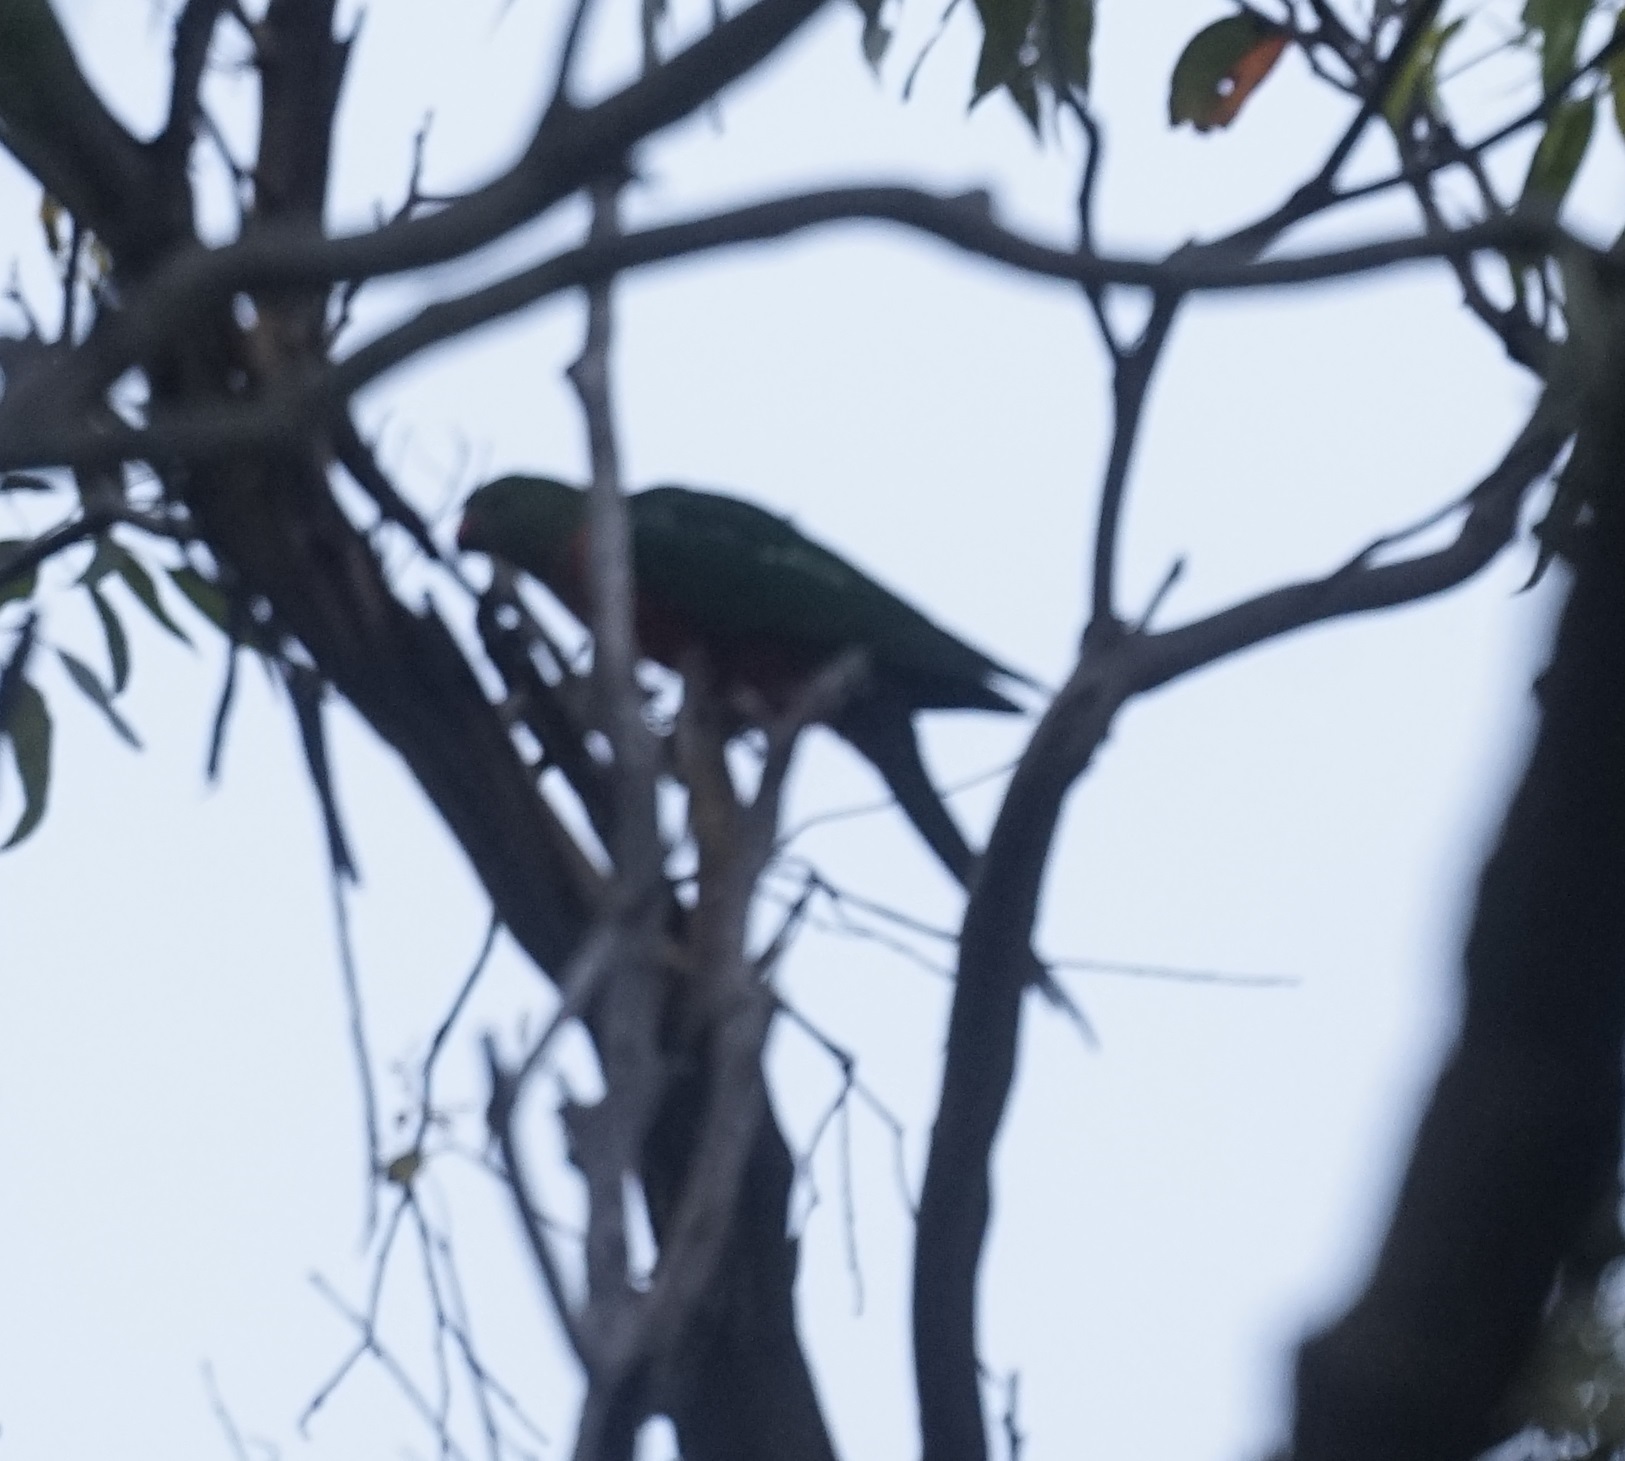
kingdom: Animalia
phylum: Chordata
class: Aves
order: Psittaciformes
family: Psittacidae
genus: Alisterus
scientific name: Alisterus scapularis
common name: Australian king parrot
